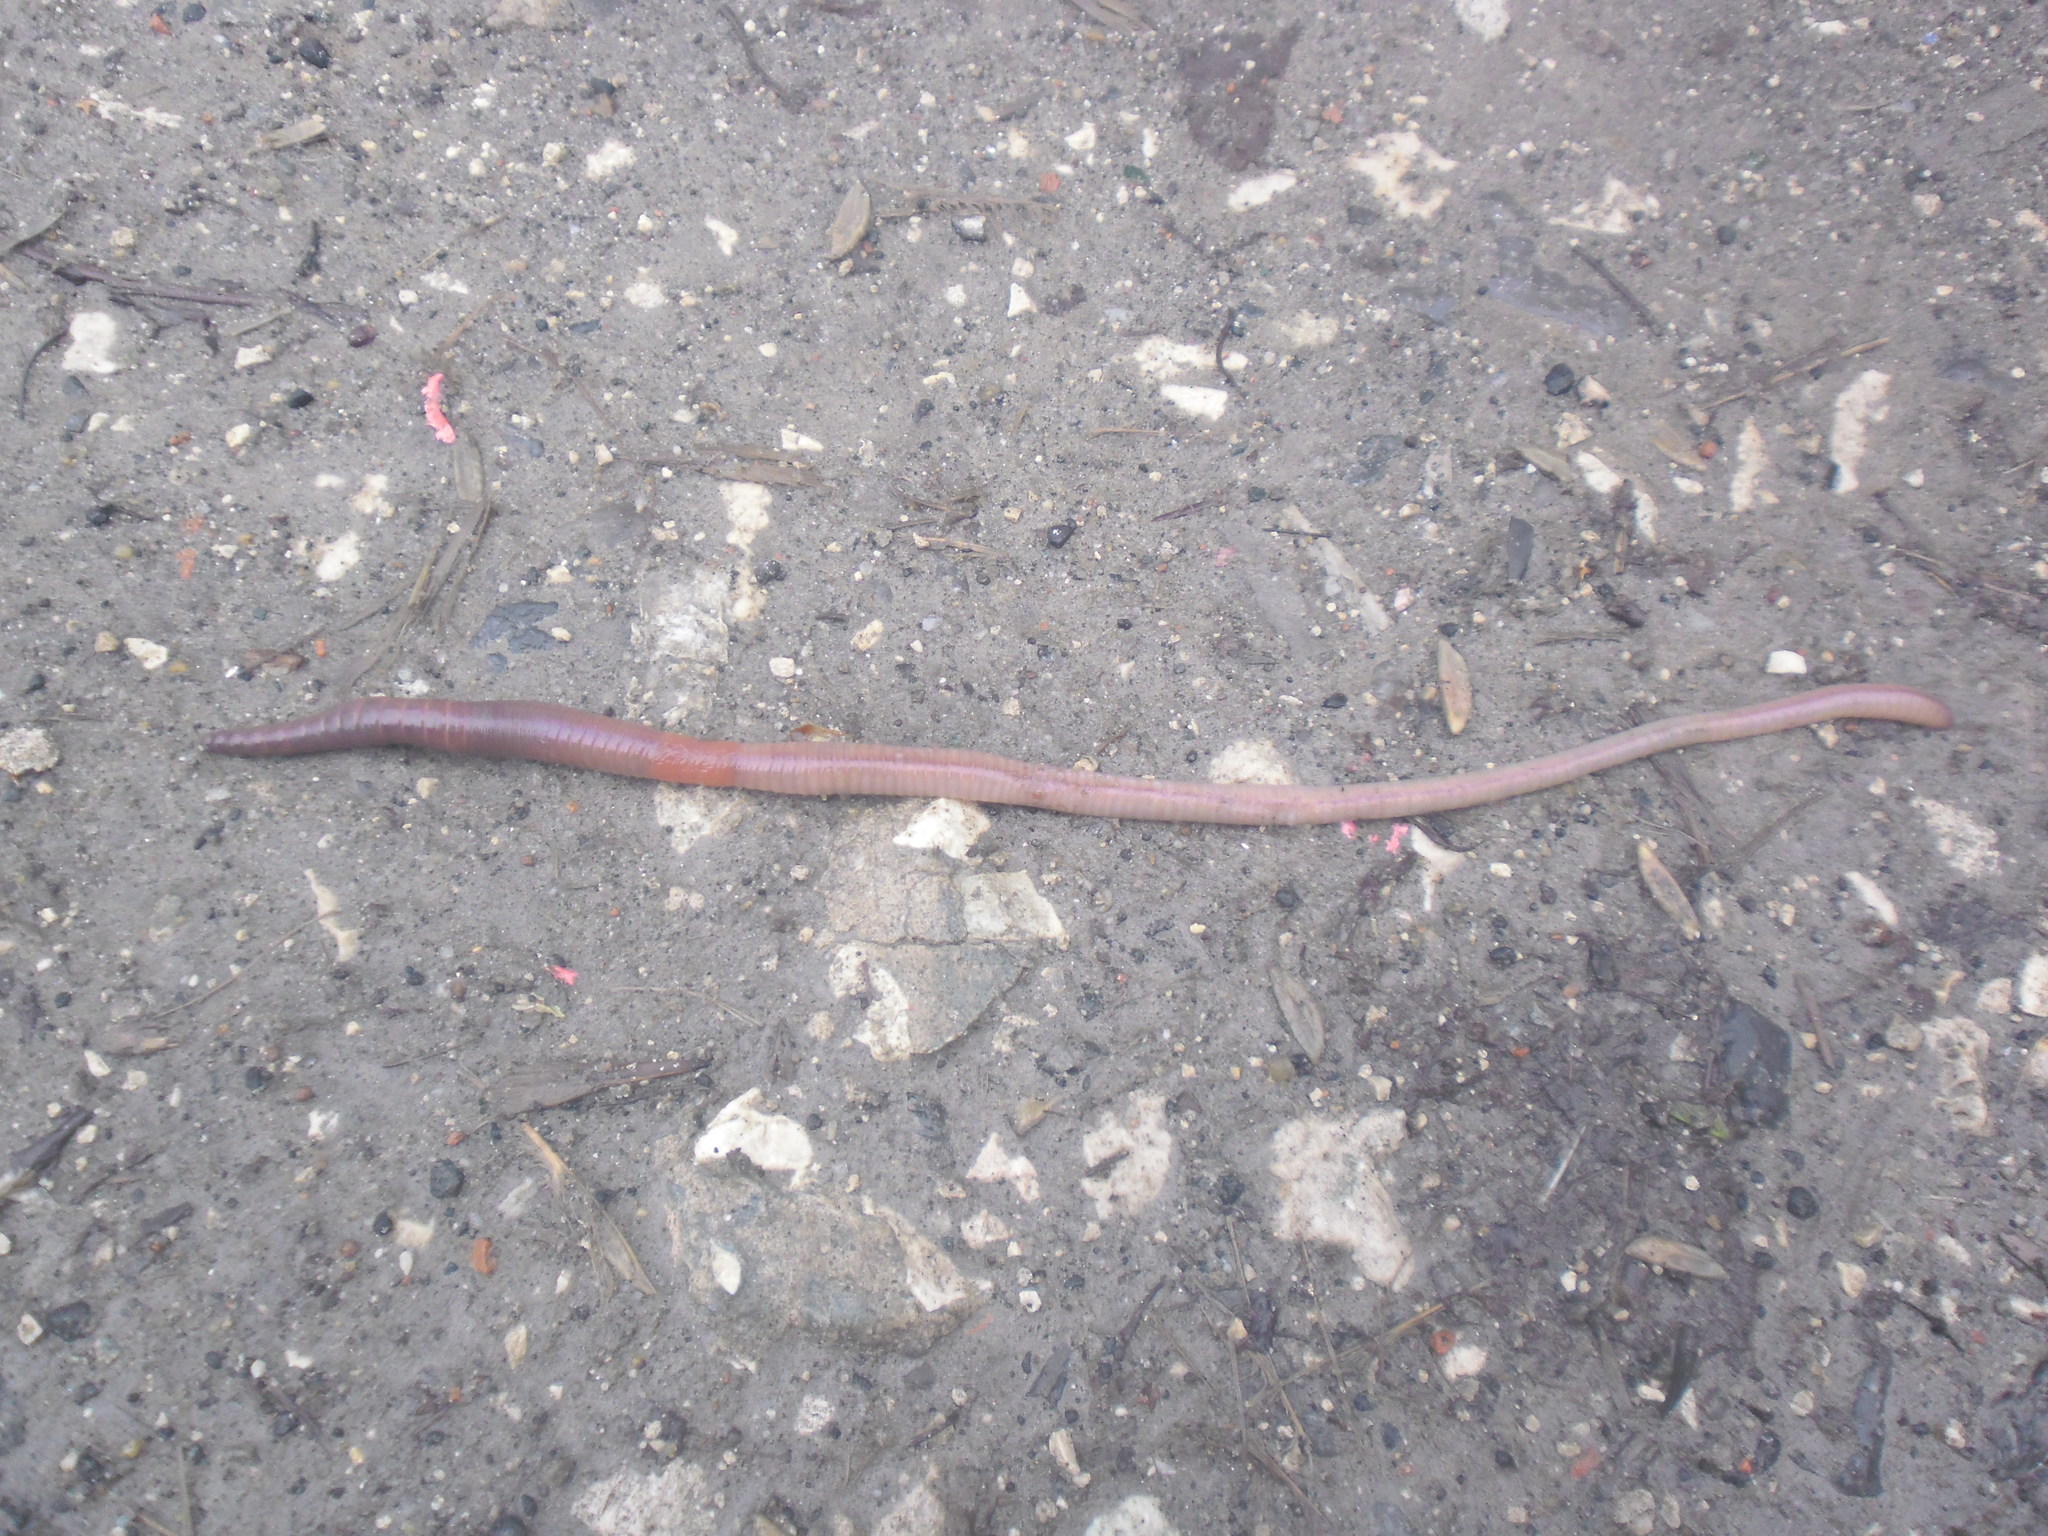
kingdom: Animalia
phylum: Annelida
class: Clitellata
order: Crassiclitellata
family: Lumbricidae
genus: Lumbricus
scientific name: Lumbricus terrestris
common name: Common earthworm
